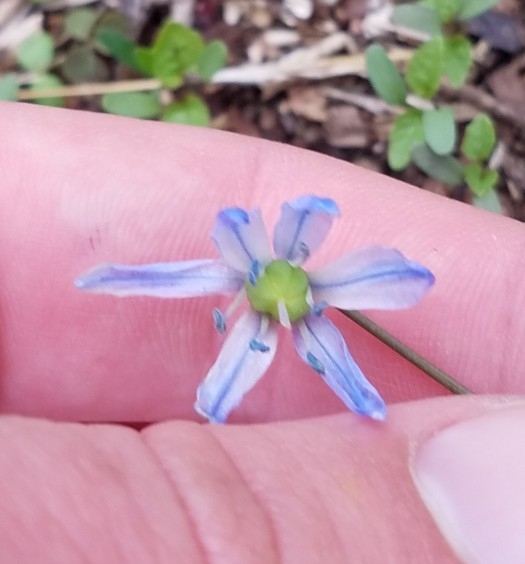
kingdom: Plantae
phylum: Tracheophyta
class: Liliopsida
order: Asparagales
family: Asparagaceae
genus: Scilla
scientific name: Scilla siberica
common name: Siberian squill
